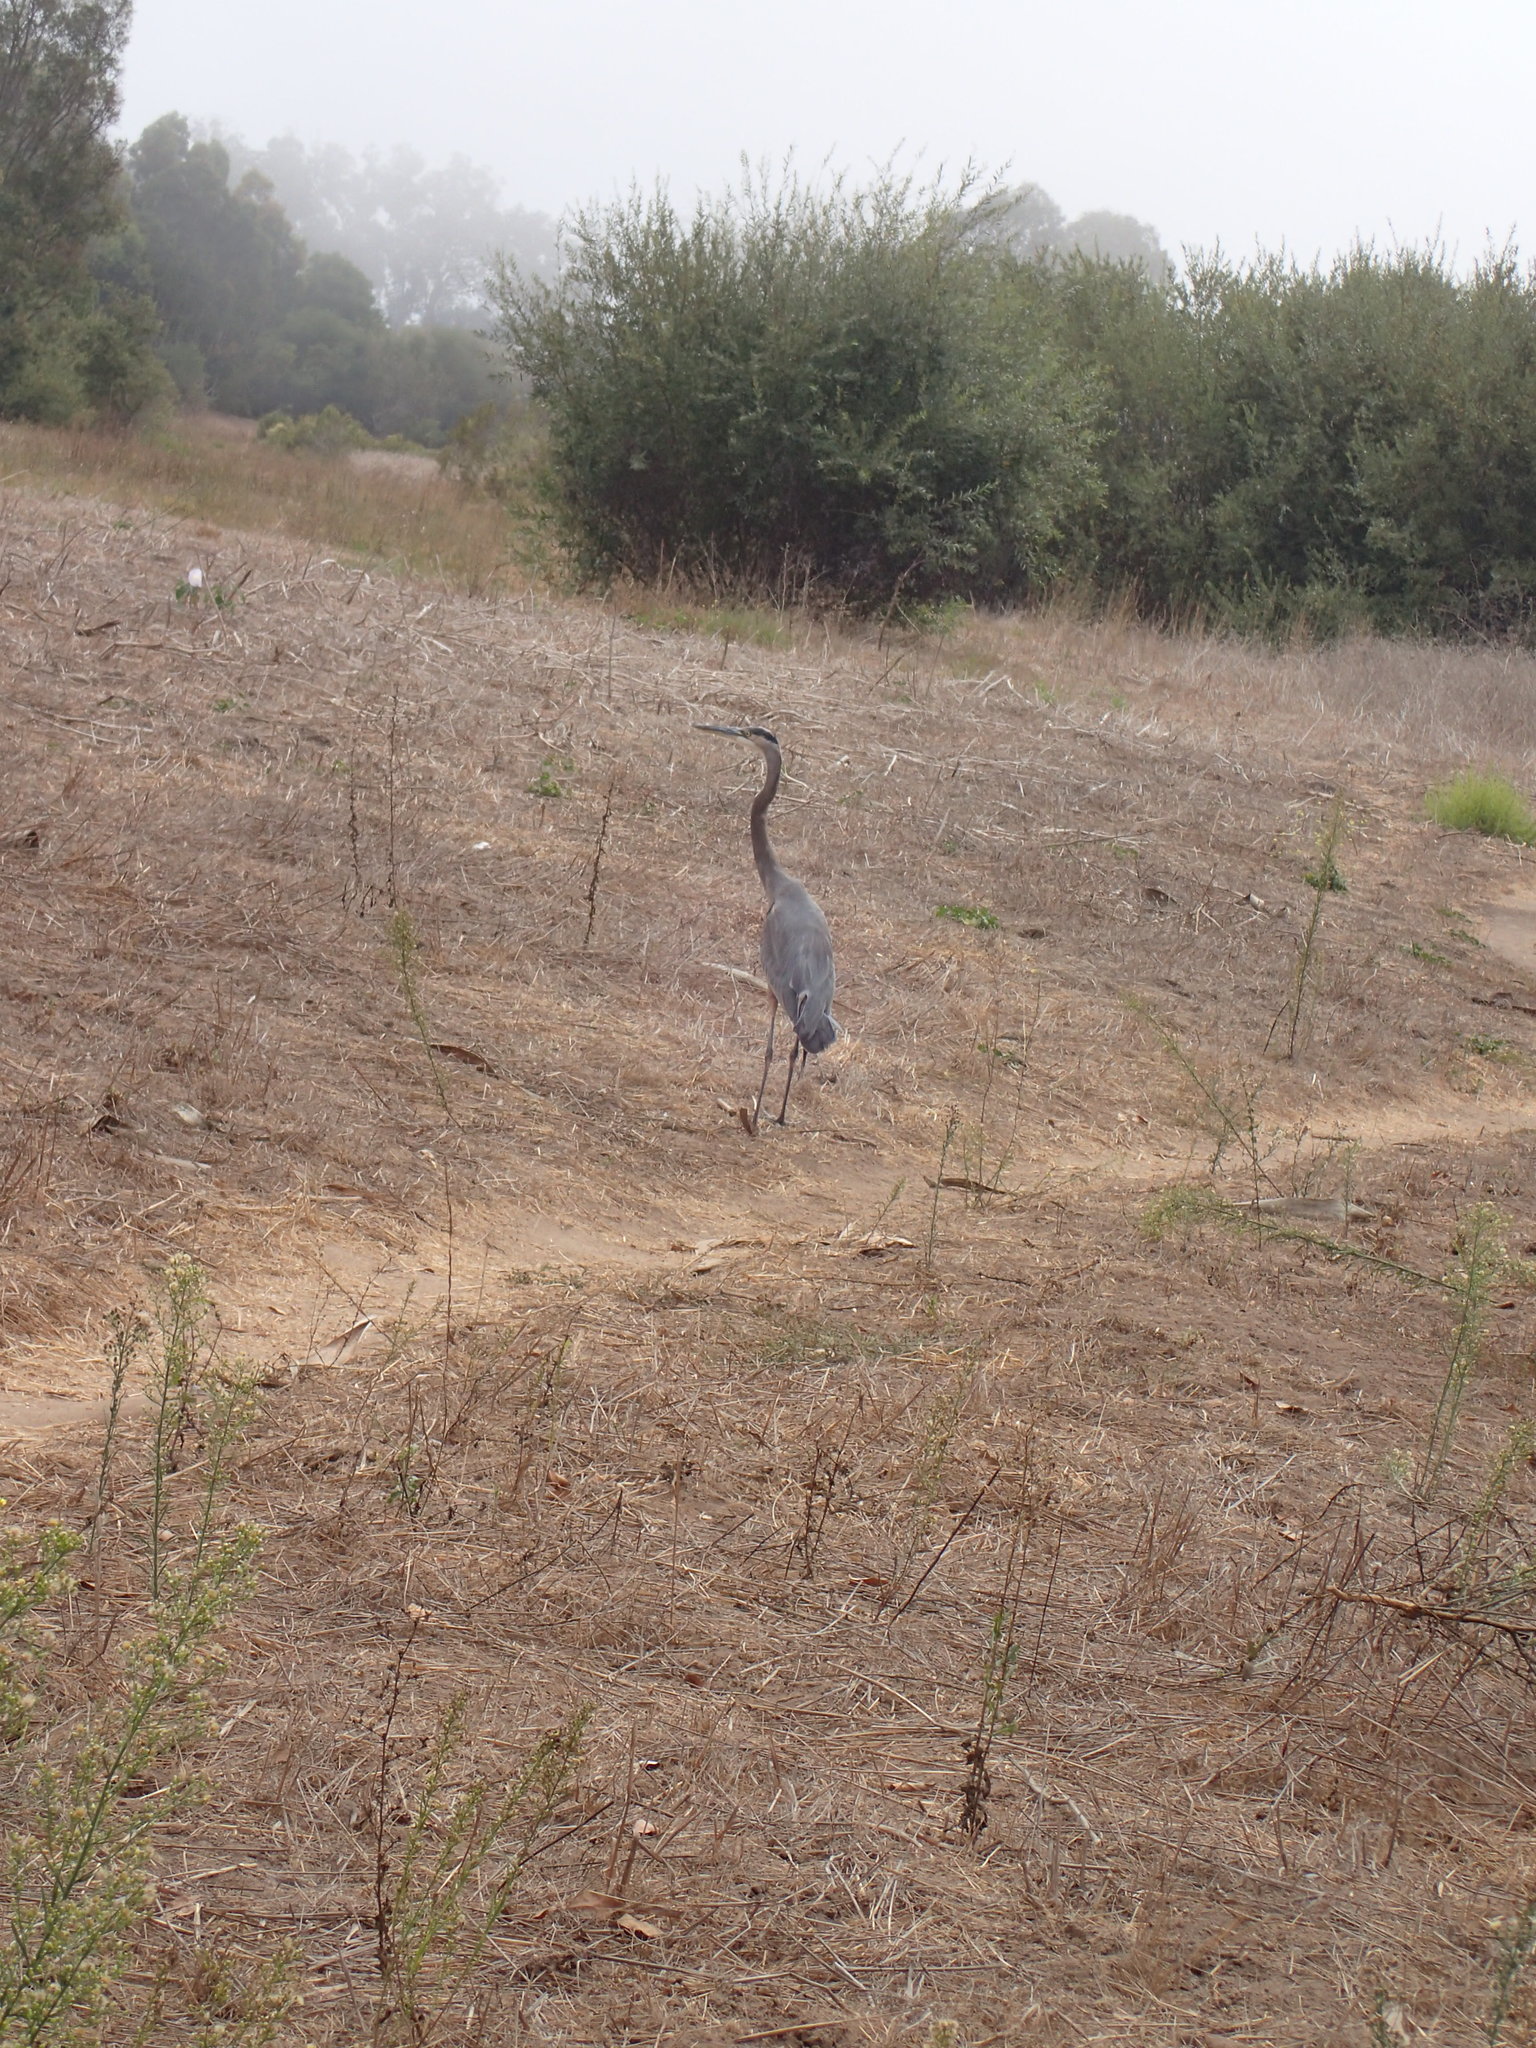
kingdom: Animalia
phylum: Chordata
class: Aves
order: Pelecaniformes
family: Ardeidae
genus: Ardea
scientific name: Ardea herodias
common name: Great blue heron
